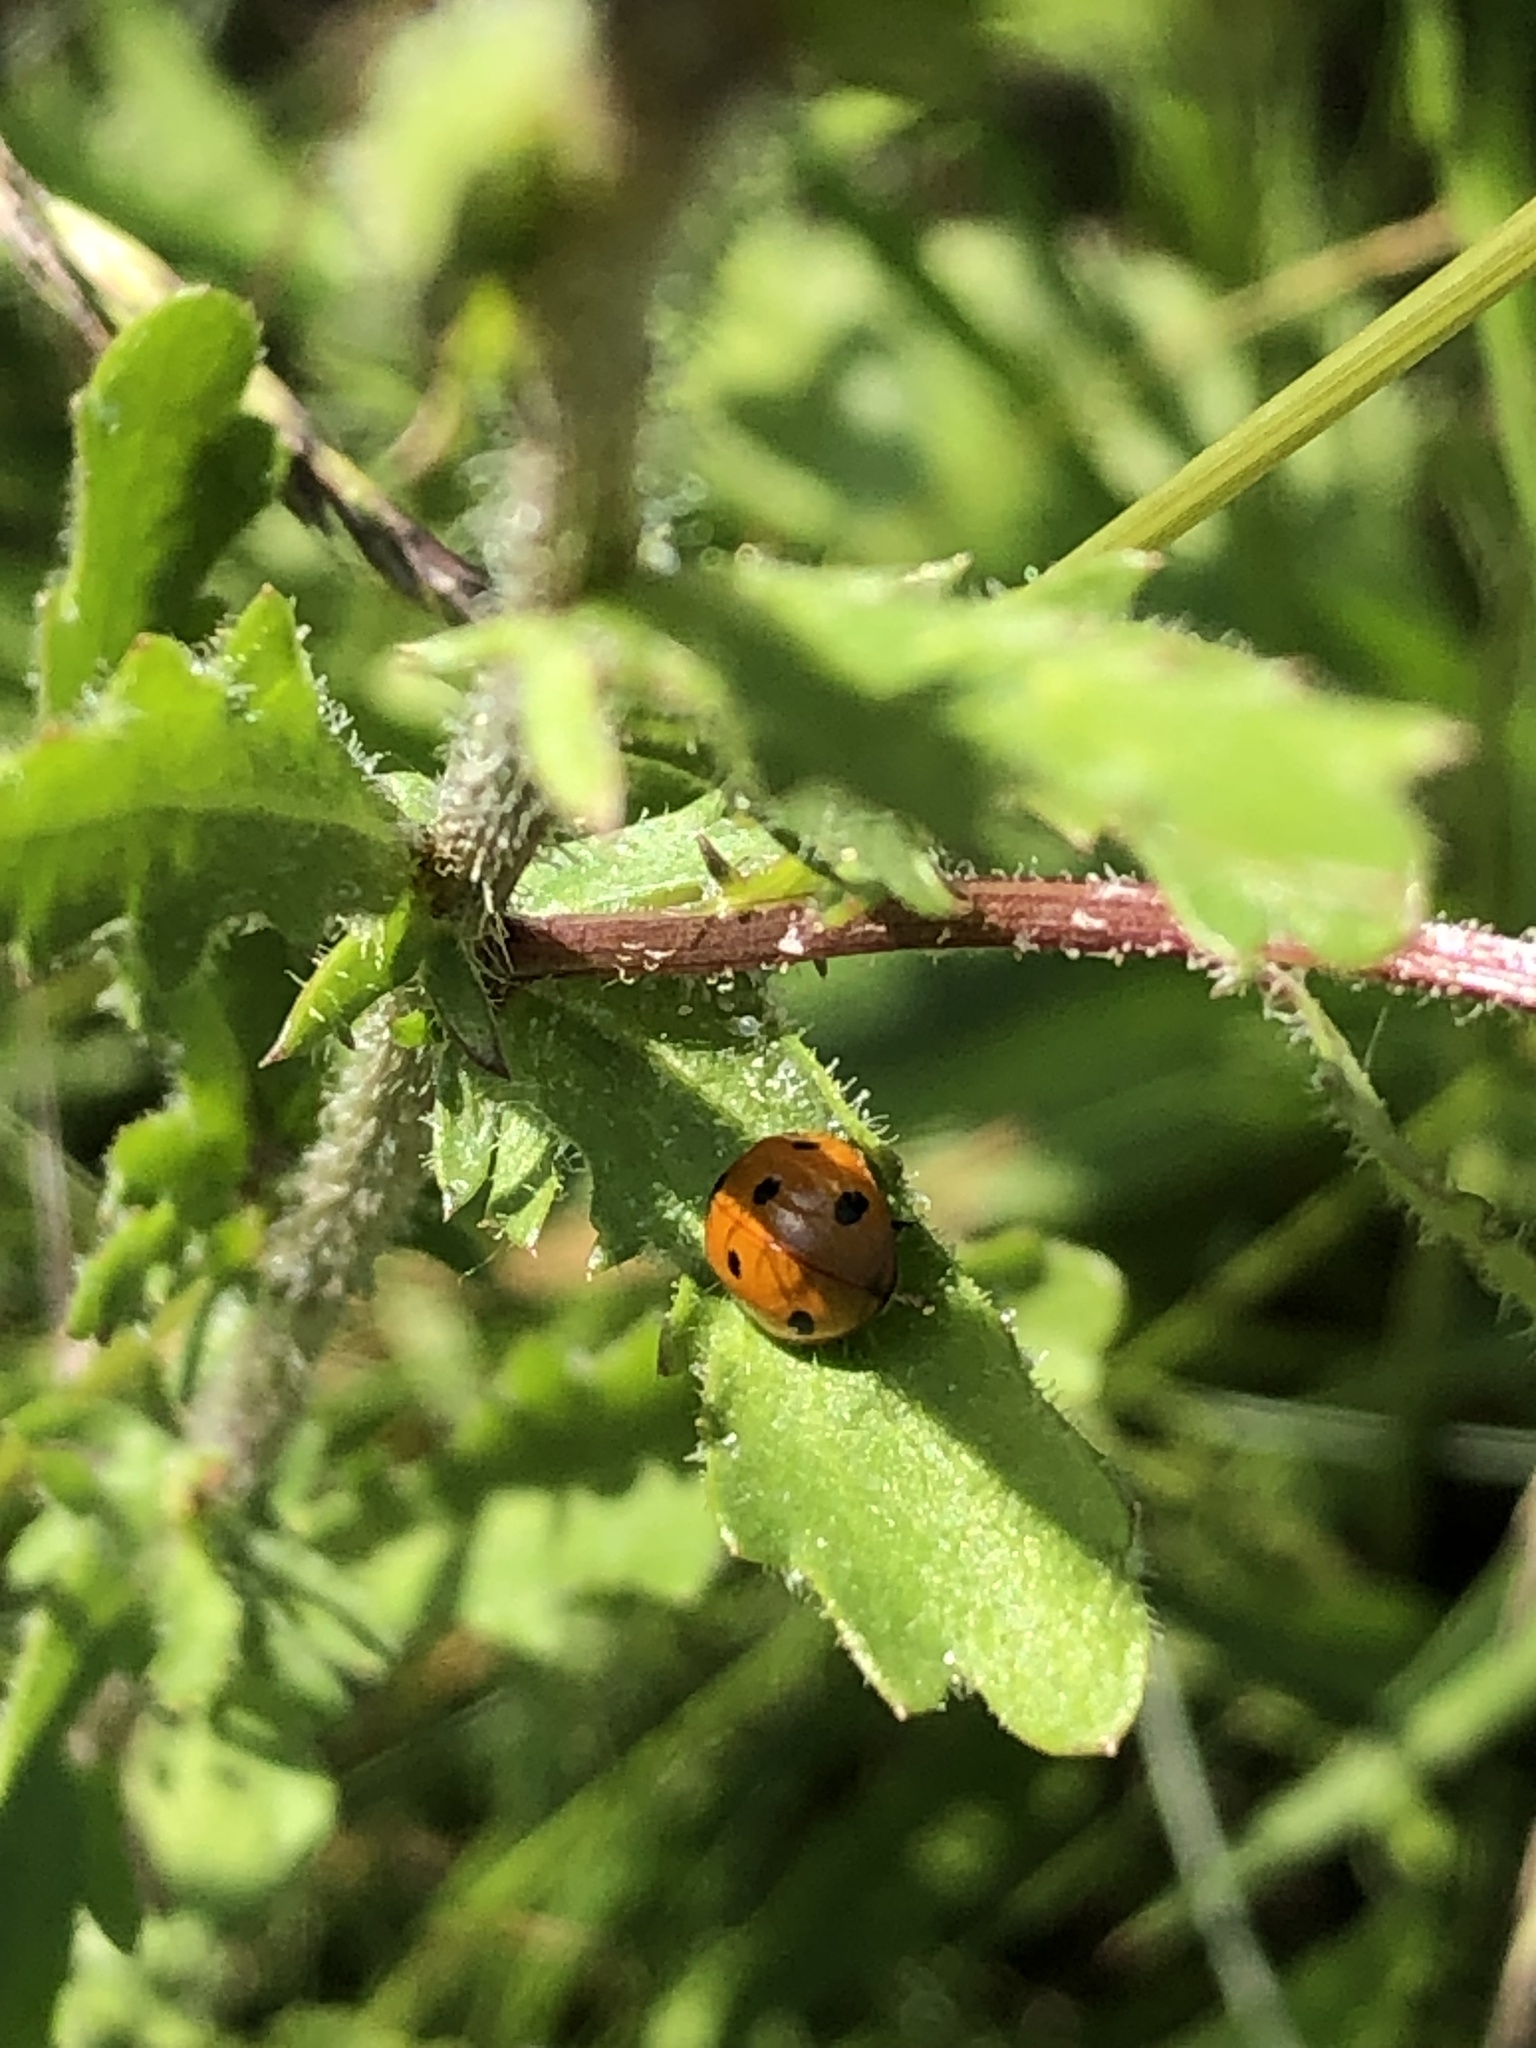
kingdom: Animalia
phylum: Arthropoda
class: Insecta
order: Coleoptera
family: Coccinellidae
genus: Coccinella
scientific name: Coccinella septempunctata
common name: Sevenspotted lady beetle
